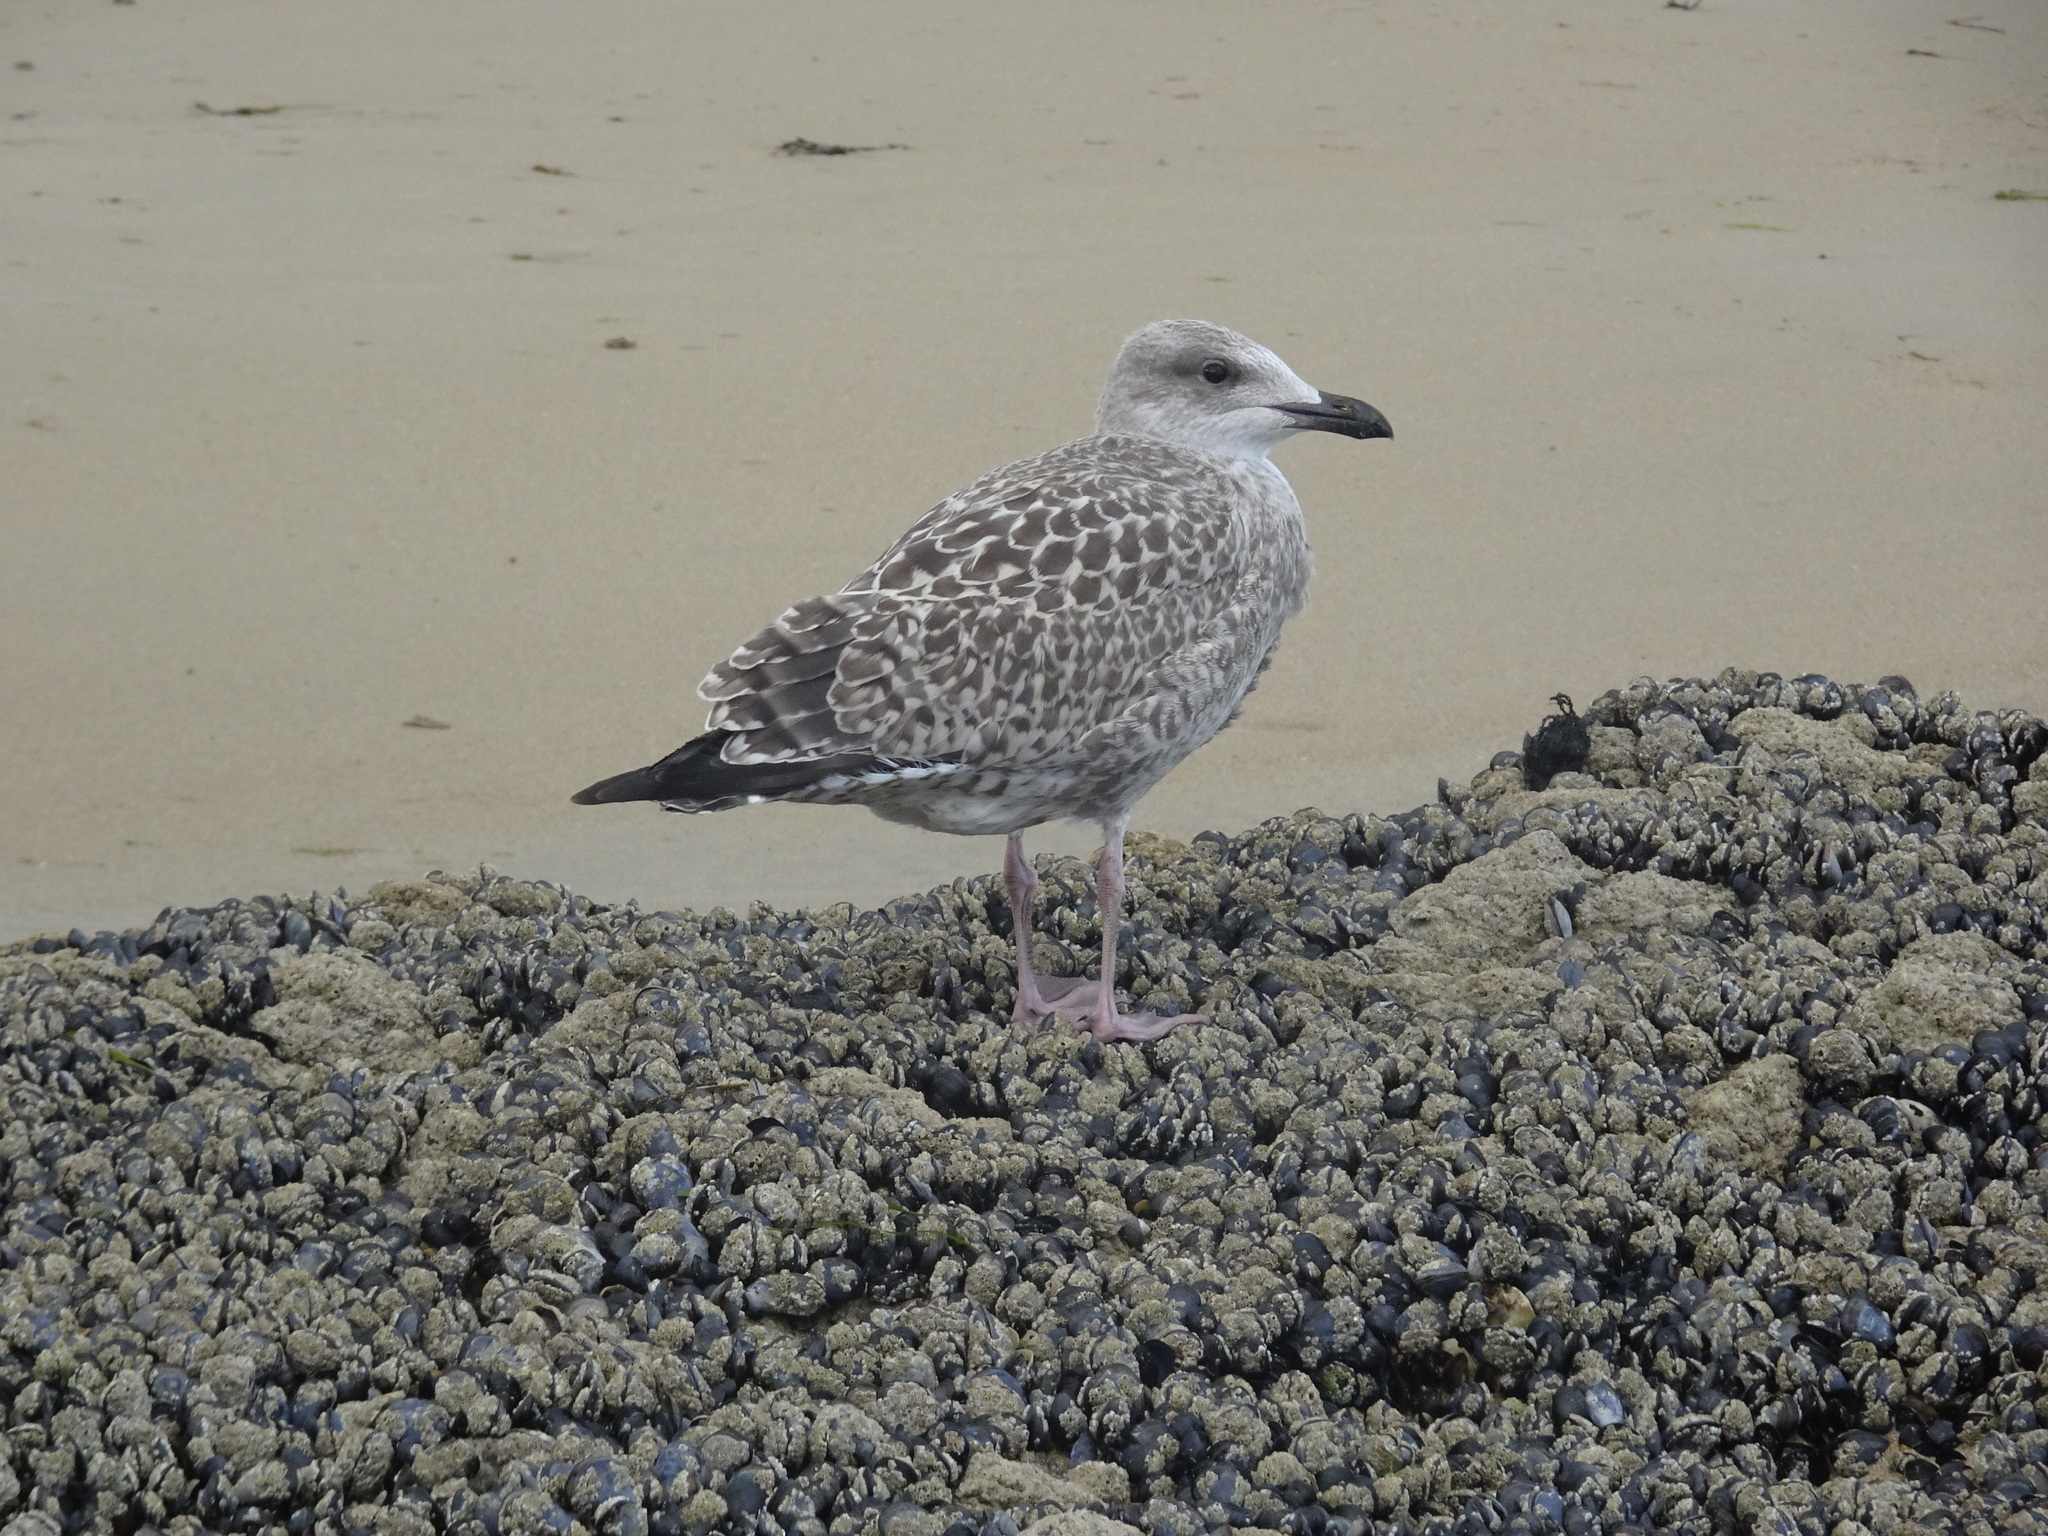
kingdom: Animalia
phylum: Chordata
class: Aves
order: Charadriiformes
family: Laridae
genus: Larus
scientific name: Larus argentatus
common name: Herring gull
